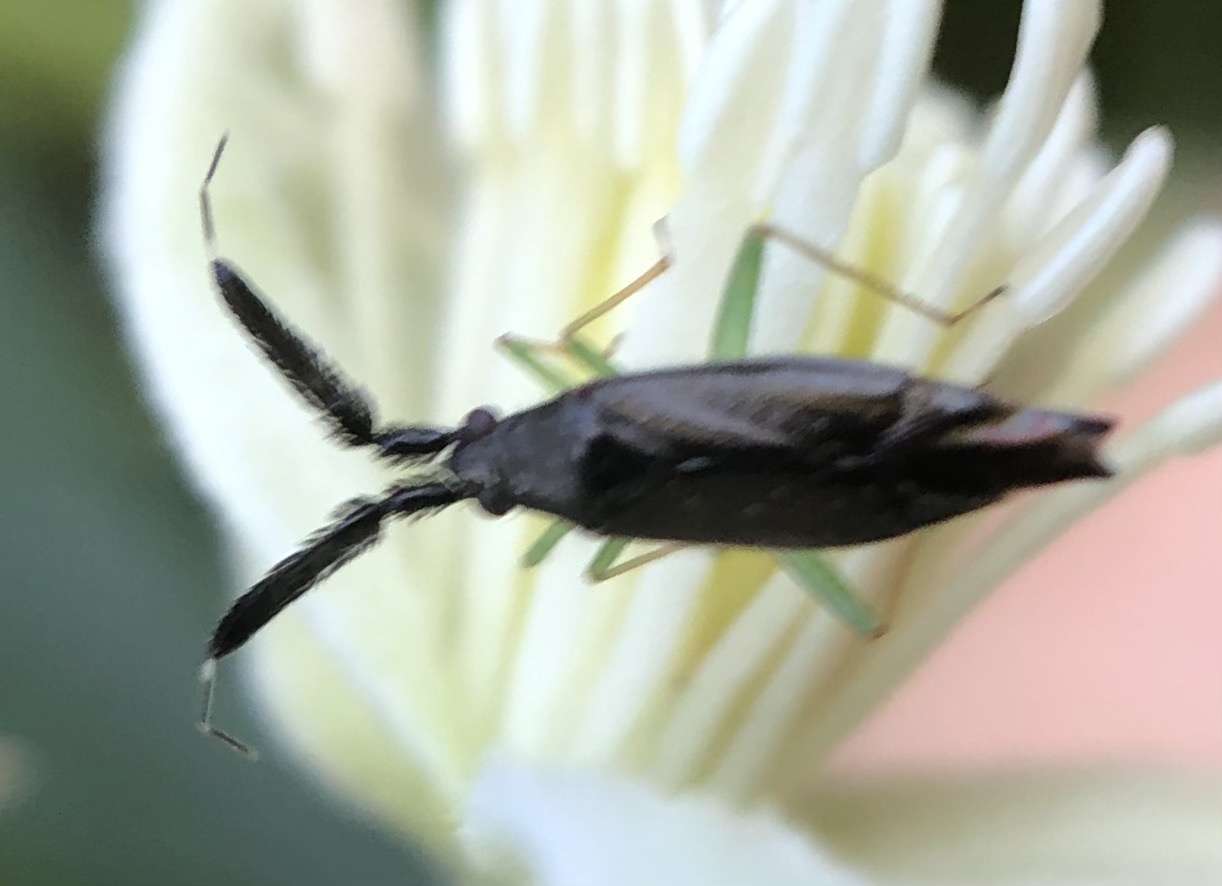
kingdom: Animalia
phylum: Arthropoda
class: Insecta
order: Hemiptera
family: Miridae
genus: Heterotoma
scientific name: Heterotoma planicornis
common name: Plant bug
